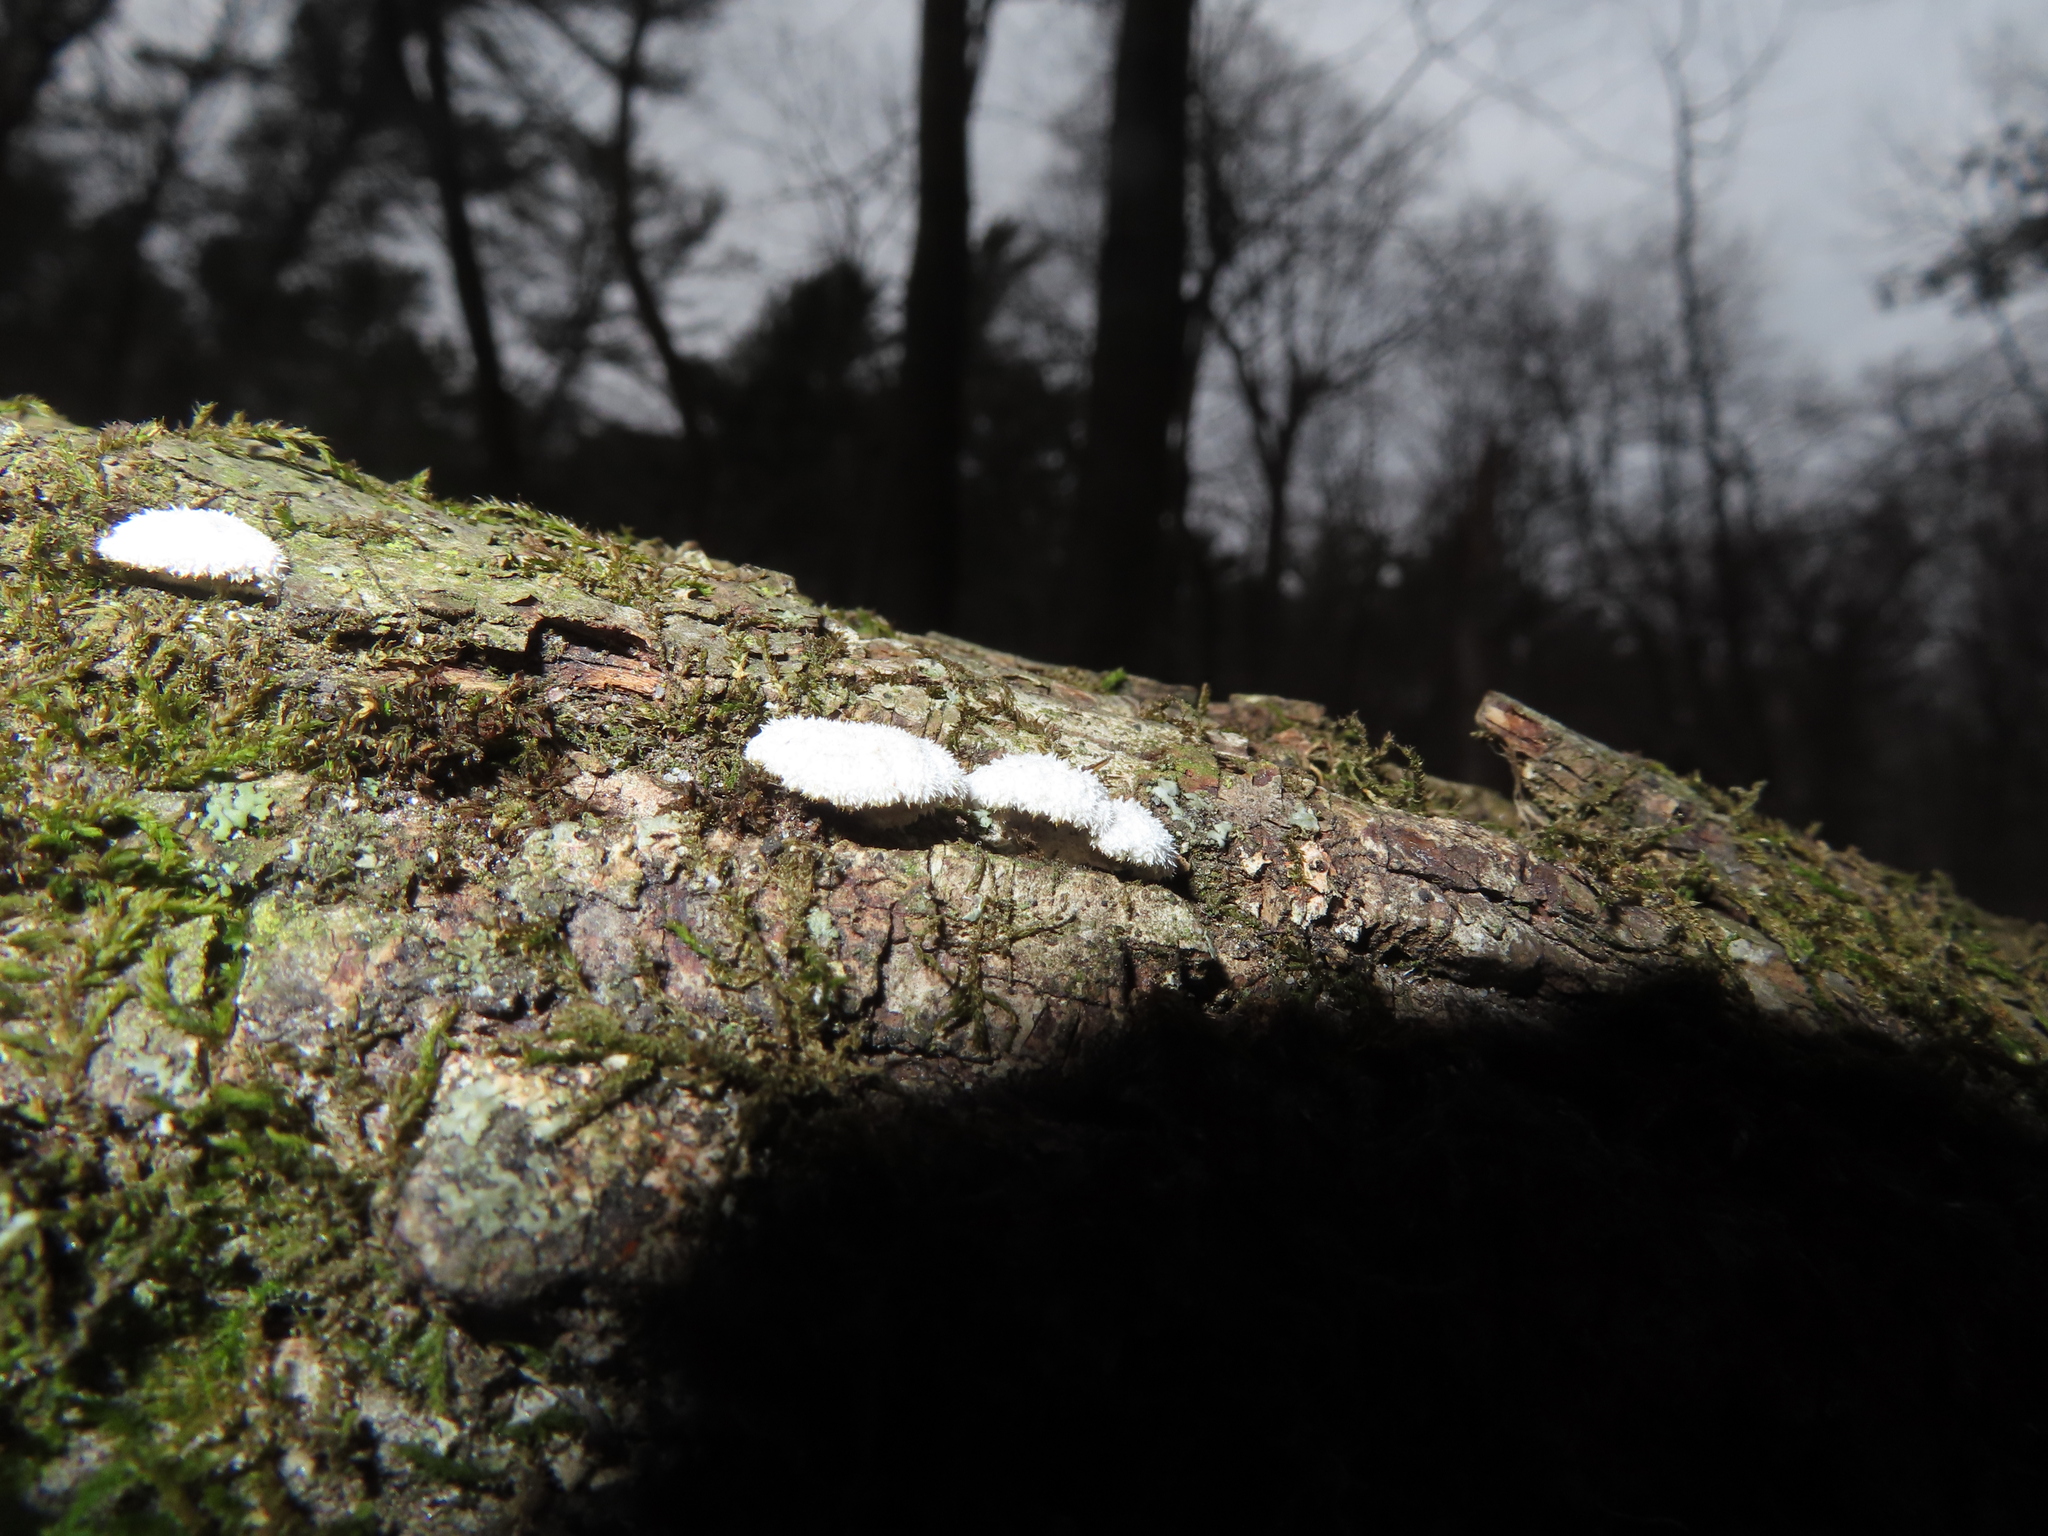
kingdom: Fungi
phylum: Basidiomycota
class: Agaricomycetes
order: Agaricales
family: Schizophyllaceae
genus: Schizophyllum
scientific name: Schizophyllum commune
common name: Common porecrust
